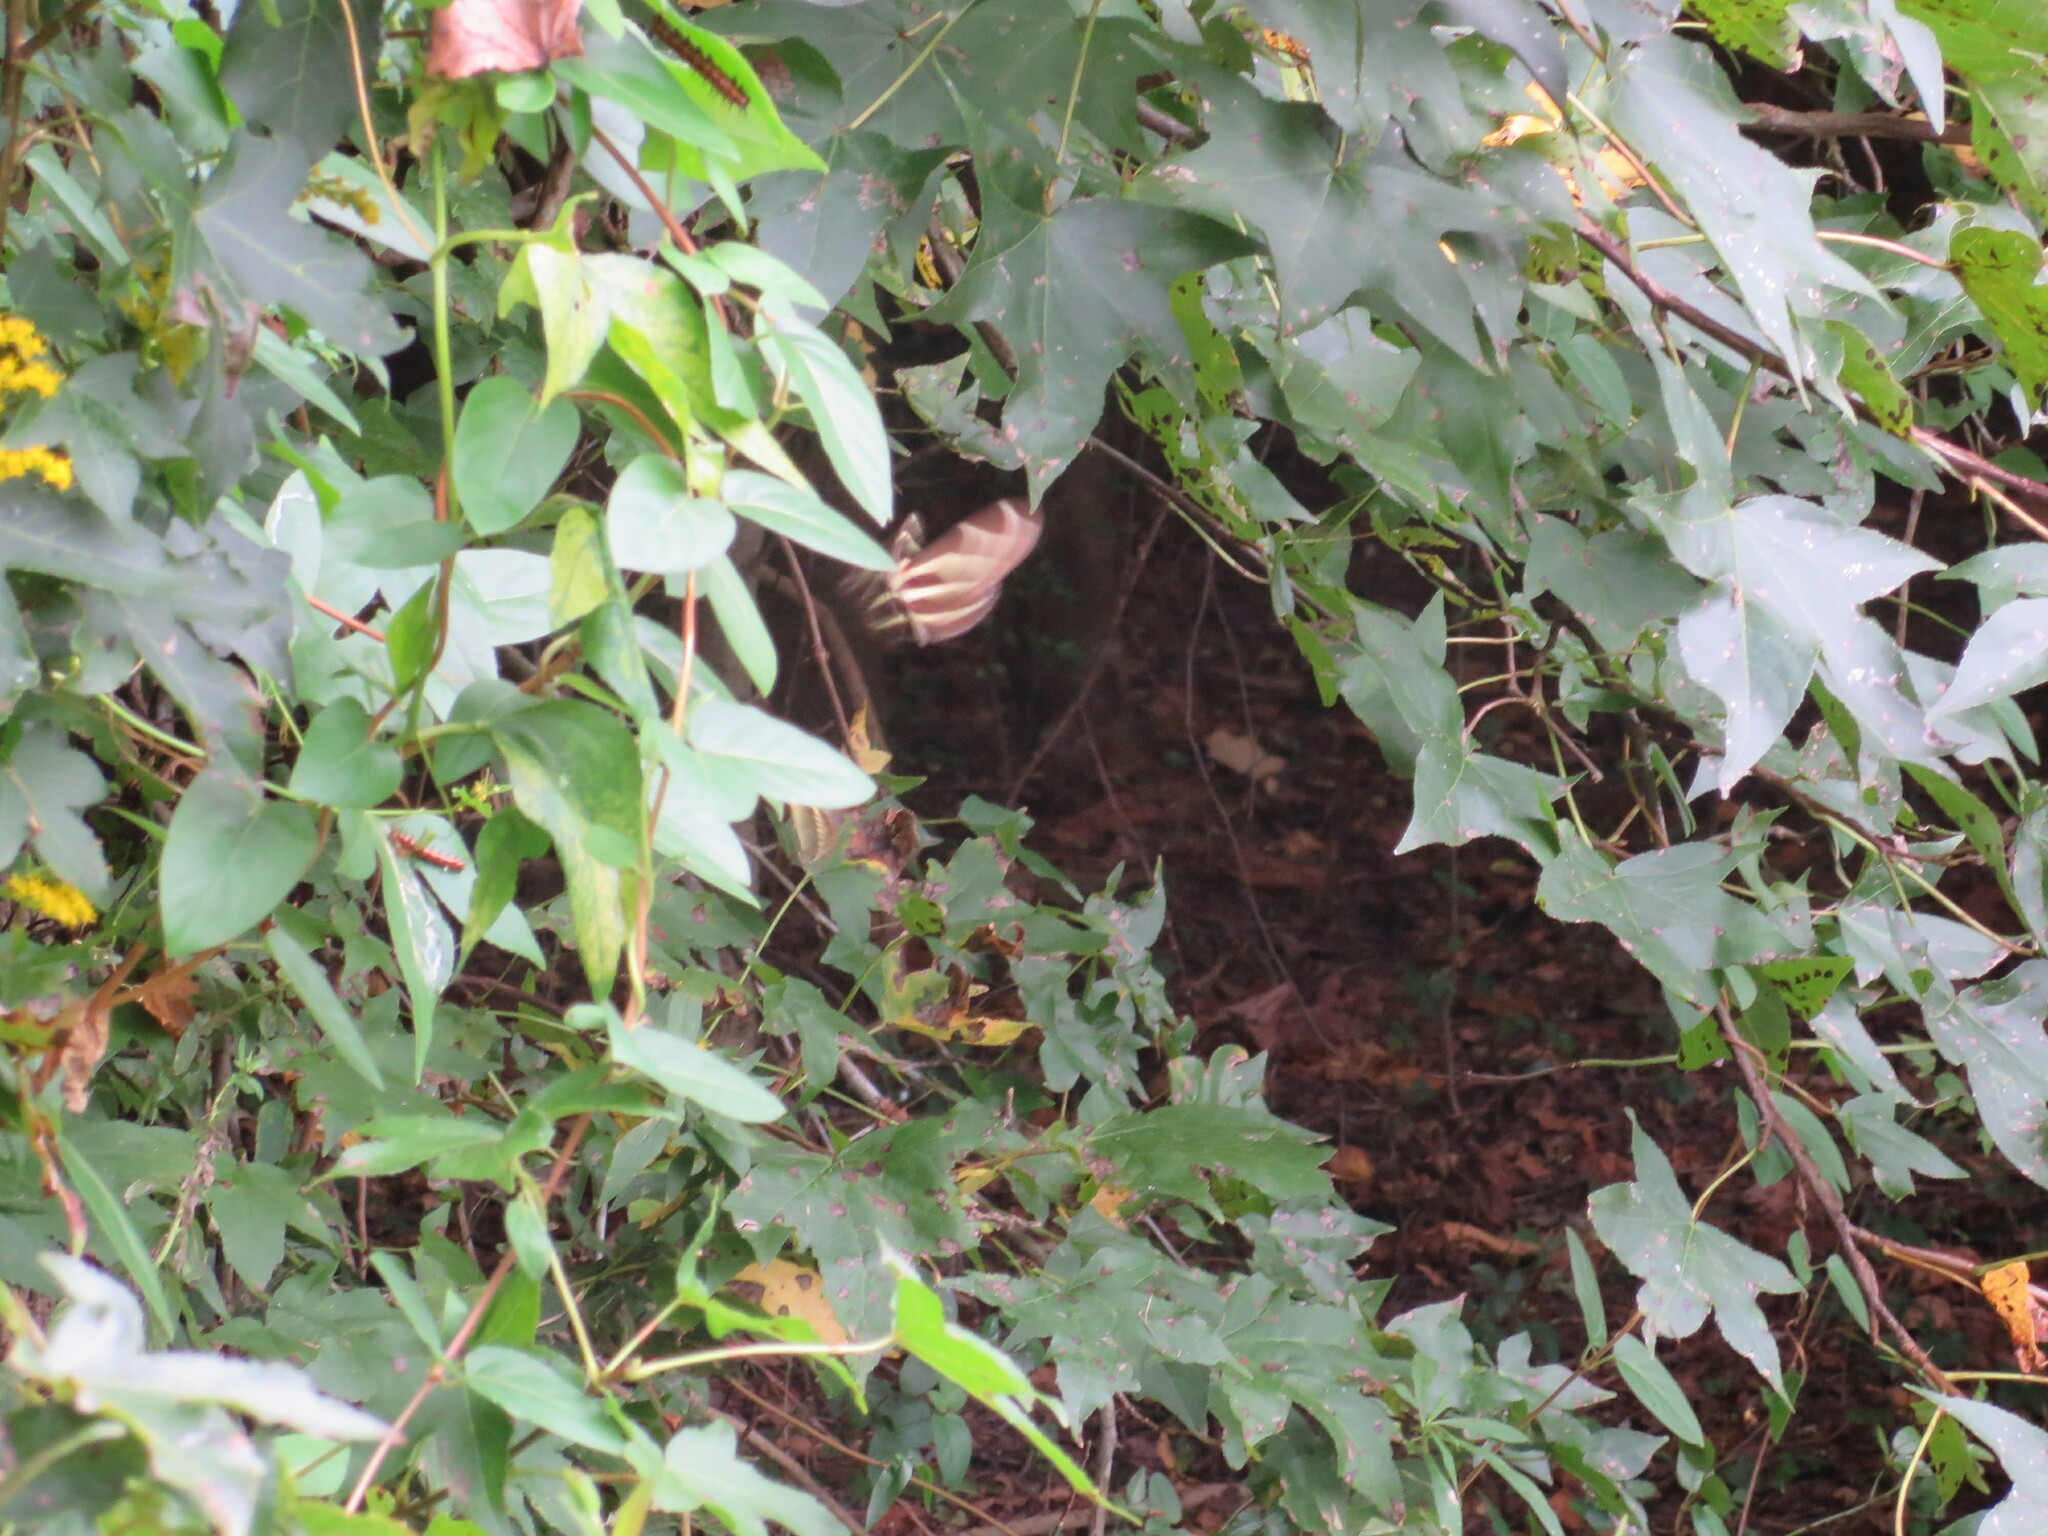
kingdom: Animalia
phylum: Arthropoda
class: Insecta
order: Lepidoptera
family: Nymphalidae
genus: Heliconius
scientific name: Heliconius charithonia
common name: Zebra long wing
